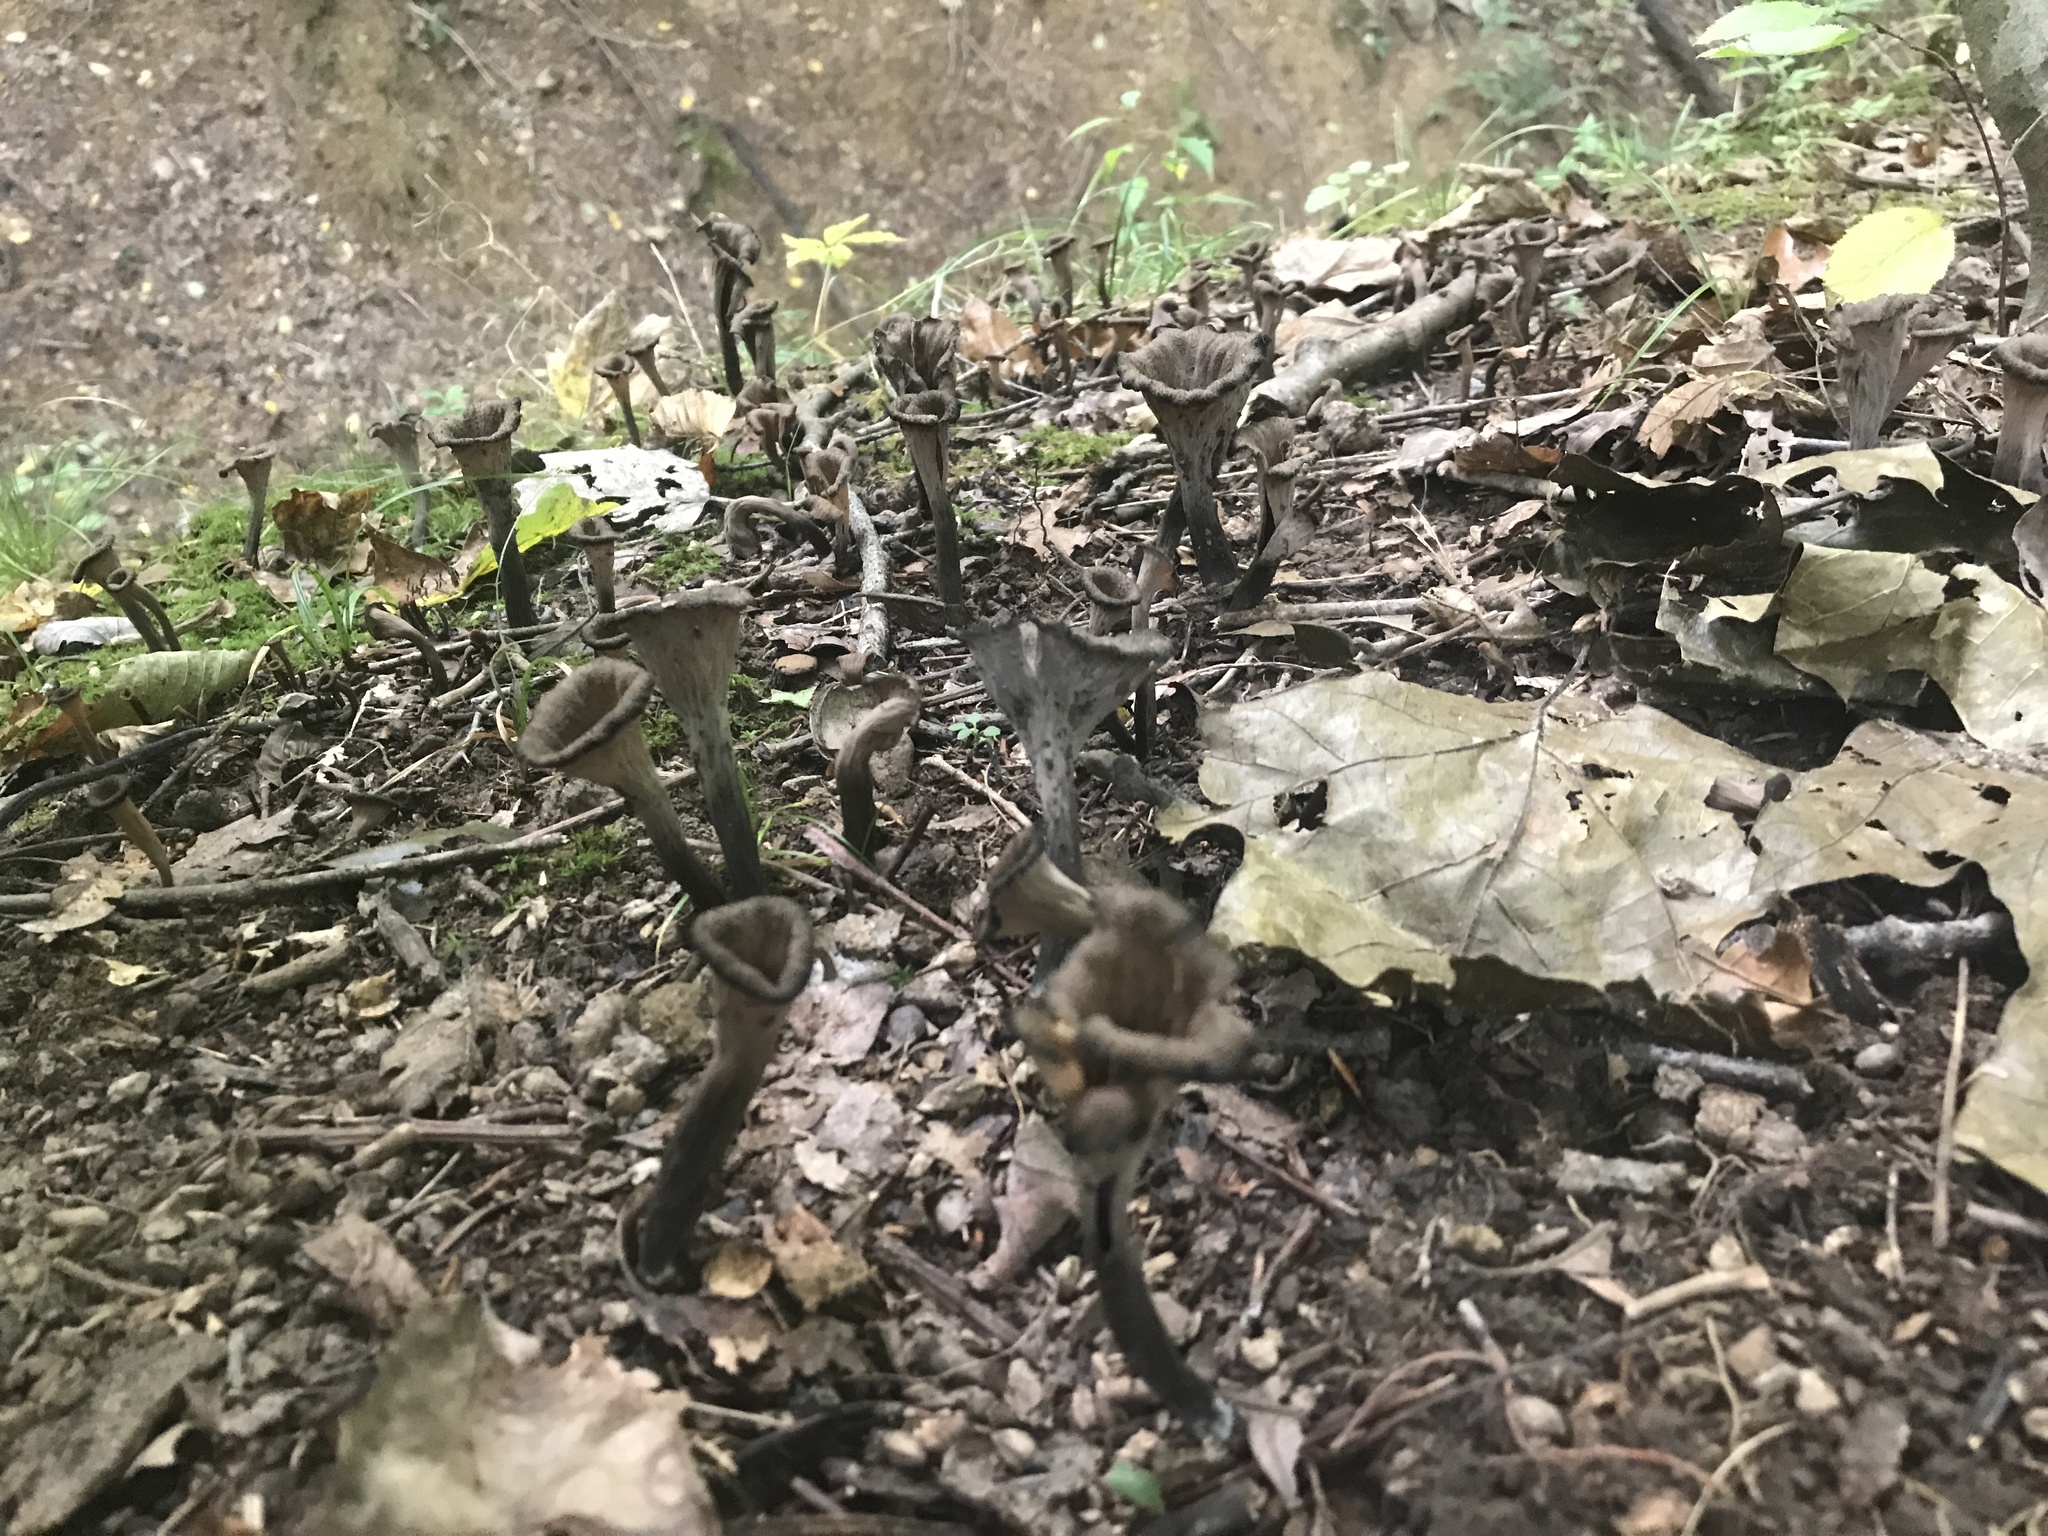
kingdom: Fungi
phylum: Basidiomycota
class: Agaricomycetes
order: Cantharellales
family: Hydnaceae
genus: Craterellus
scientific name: Craterellus cornucopioides
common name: Horn of plenty
